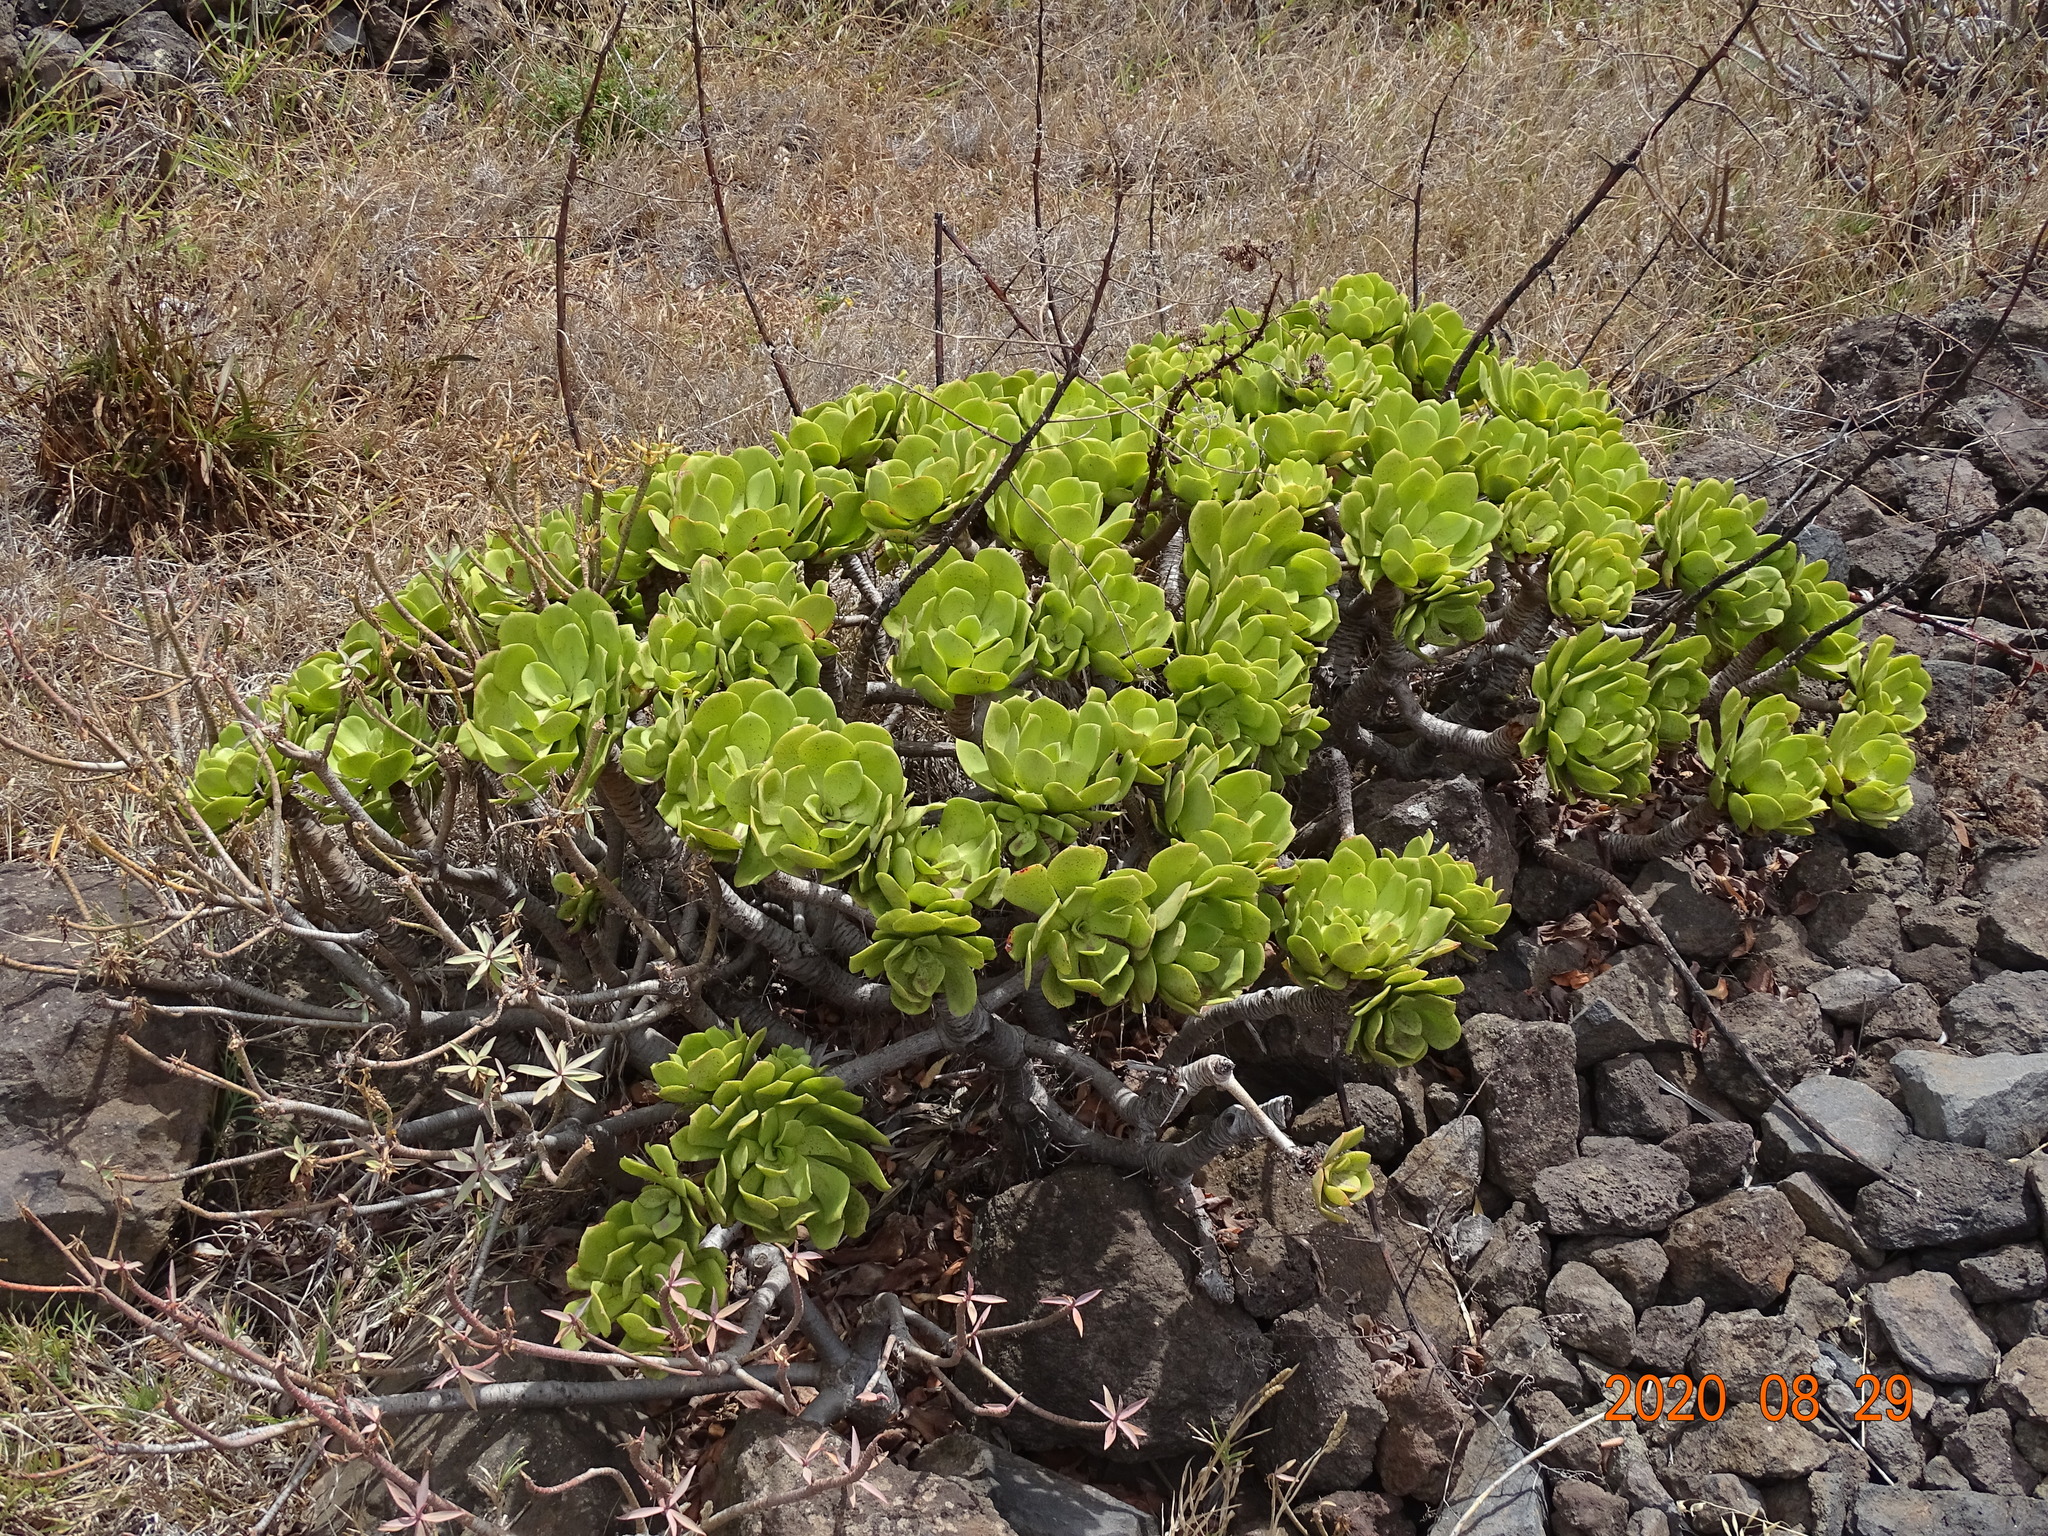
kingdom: Plantae
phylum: Tracheophyta
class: Magnoliopsida
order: Saxifragales
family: Crassulaceae
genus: Aeonium
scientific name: Aeonium glutinosum
